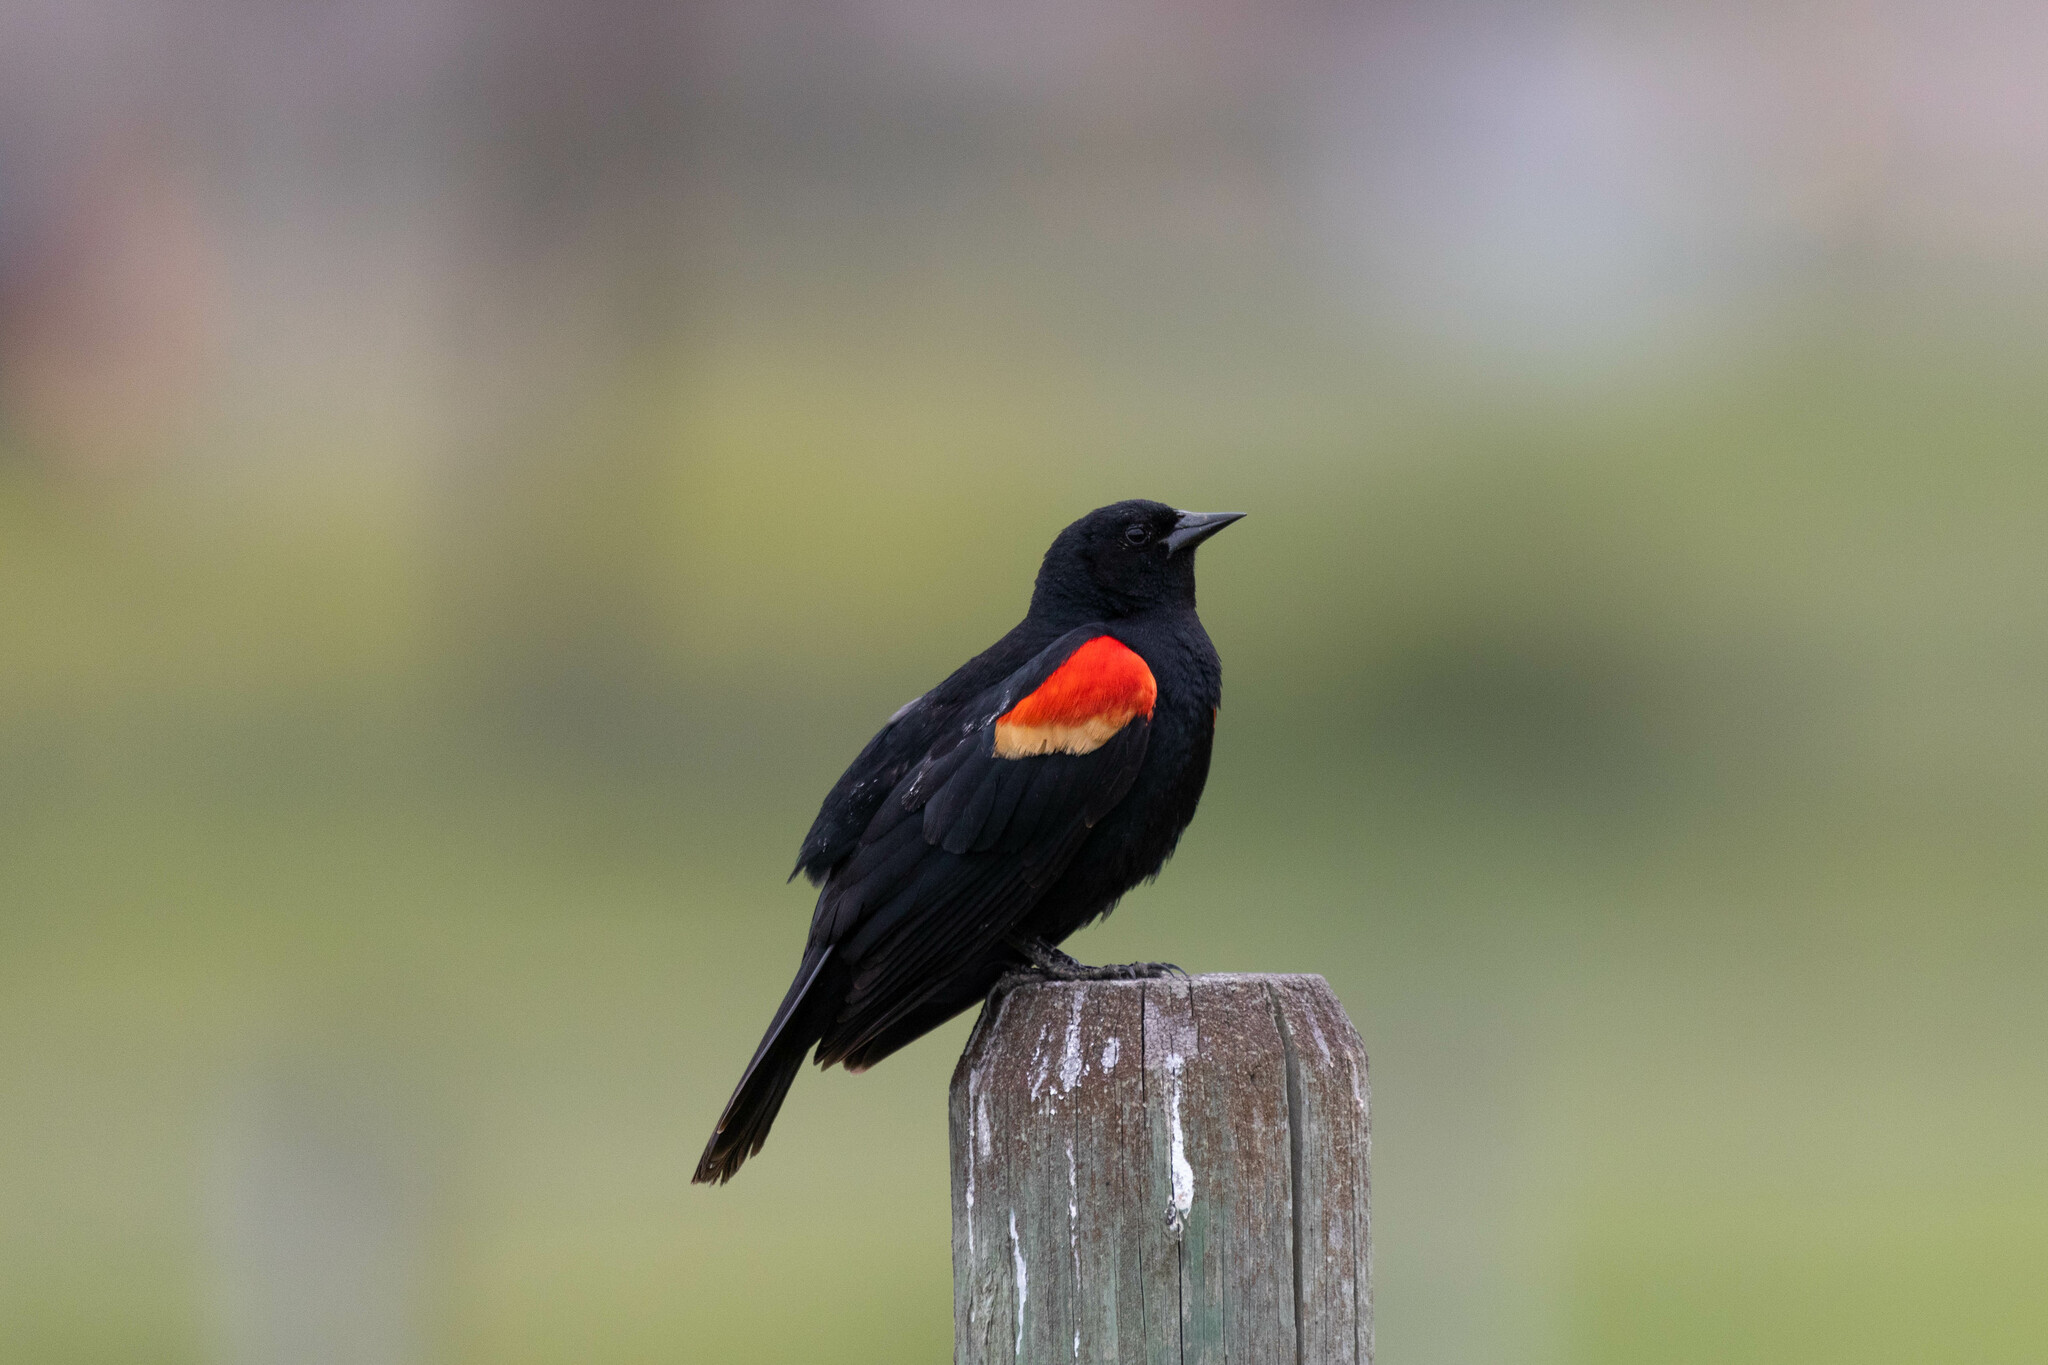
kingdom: Animalia
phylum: Chordata
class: Aves
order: Passeriformes
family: Icteridae
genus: Agelaius
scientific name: Agelaius phoeniceus
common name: Red-winged blackbird
